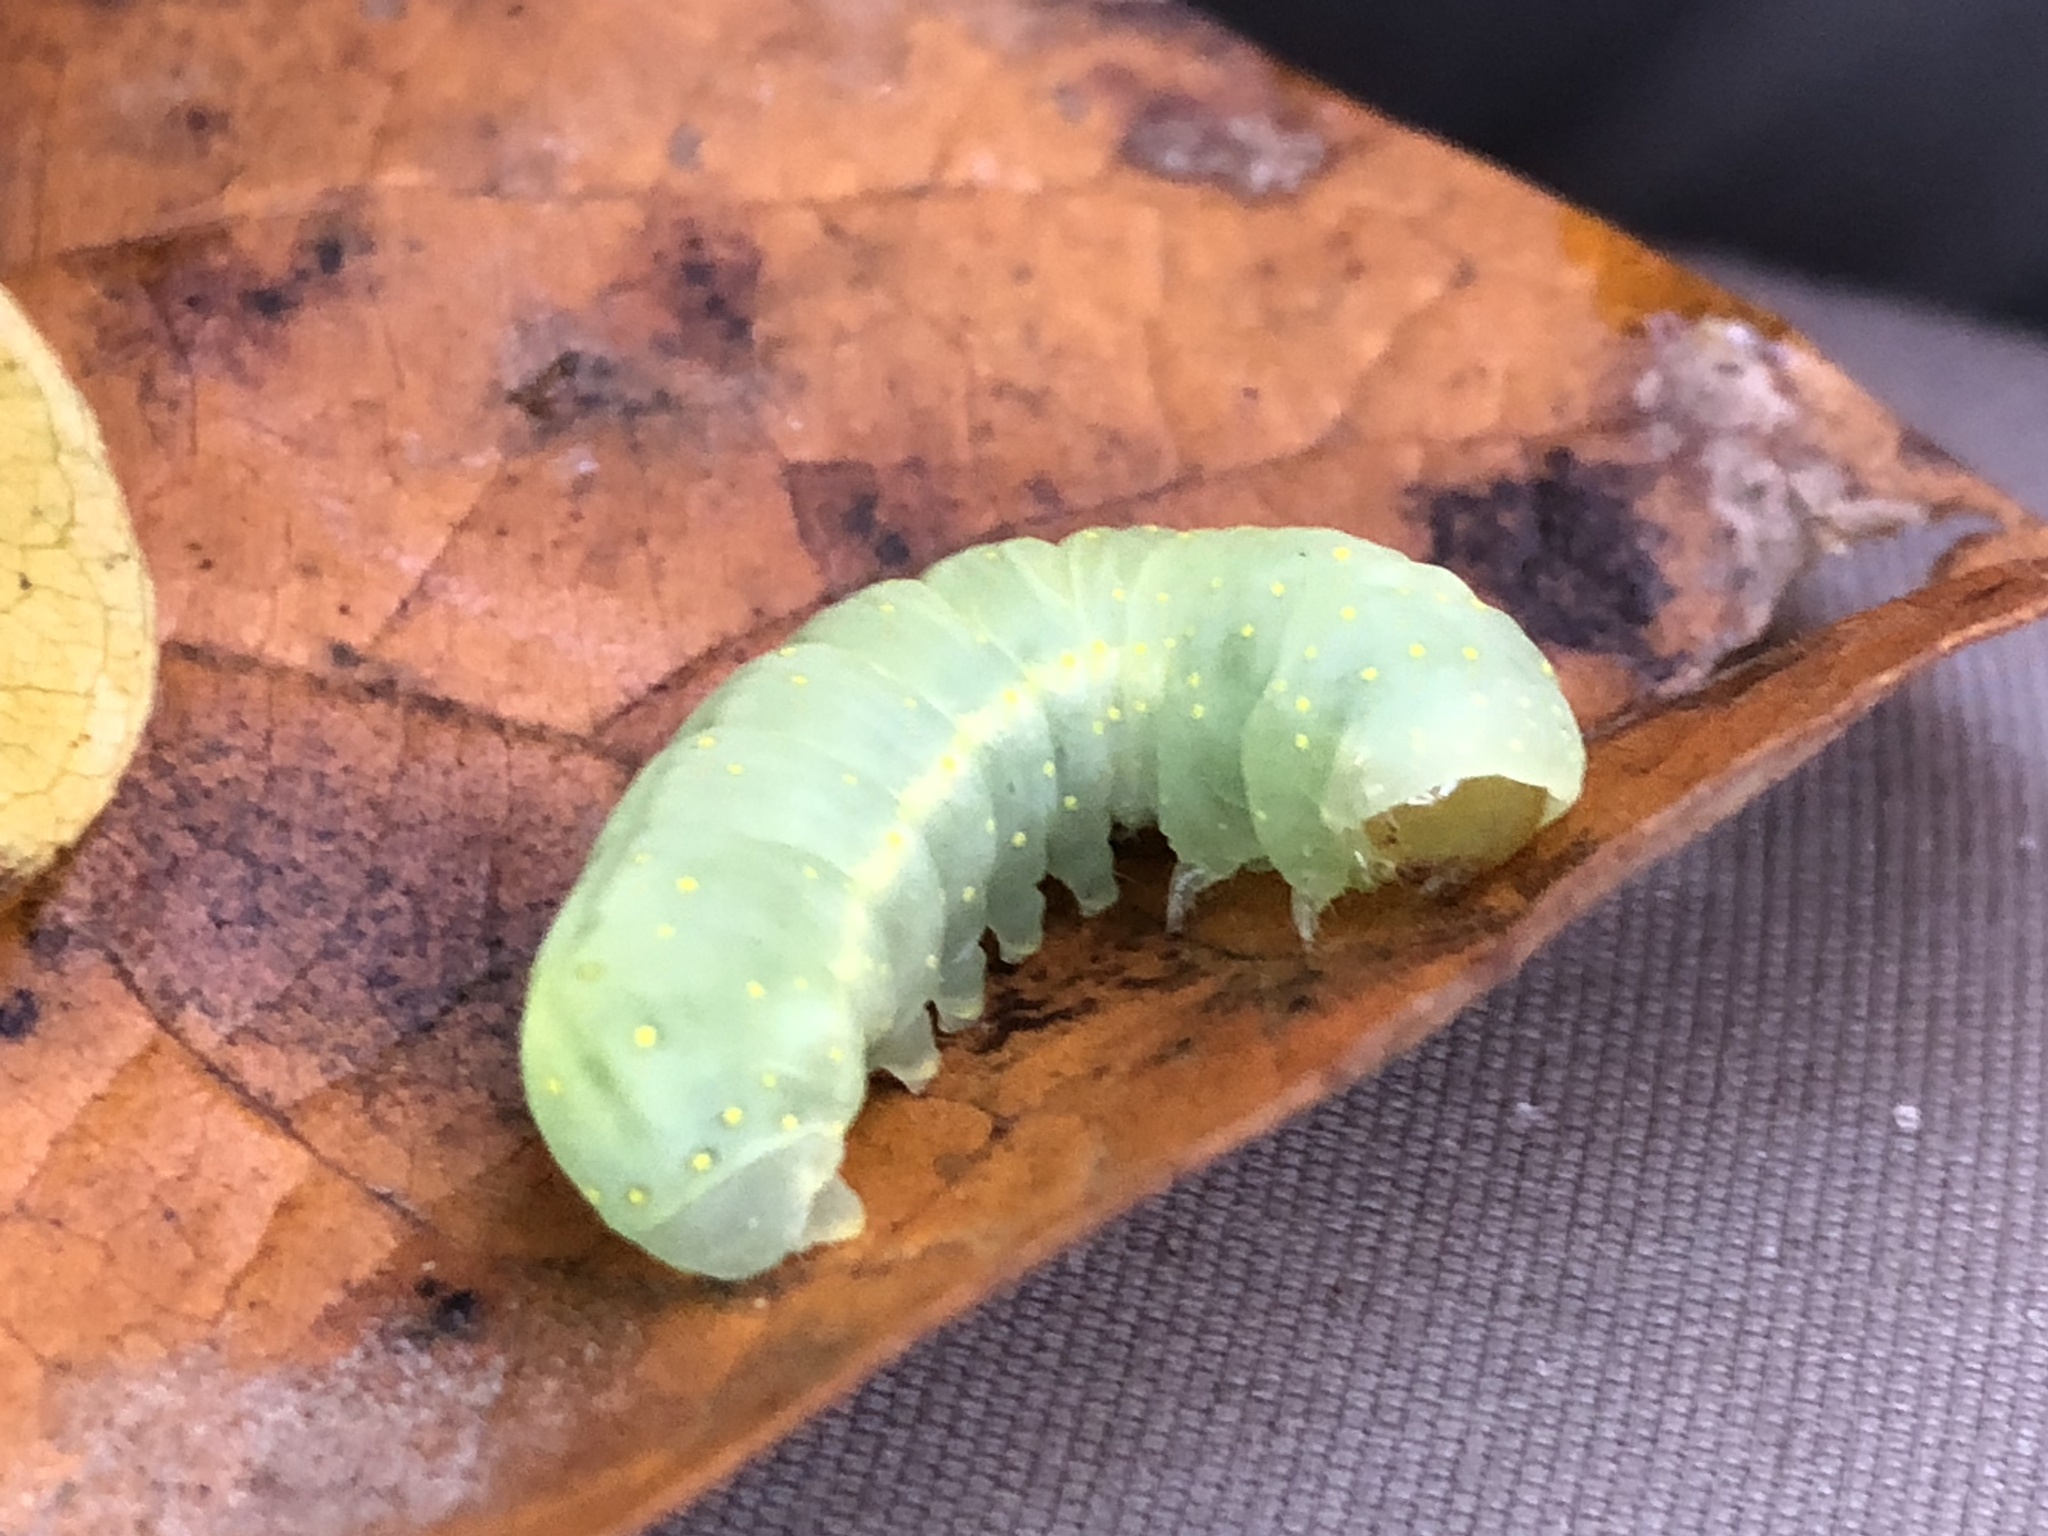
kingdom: Animalia
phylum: Arthropoda
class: Insecta
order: Lepidoptera
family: Noctuidae
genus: Phosphila
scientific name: Phosphila miselioides
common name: Spotted phosphila moth
